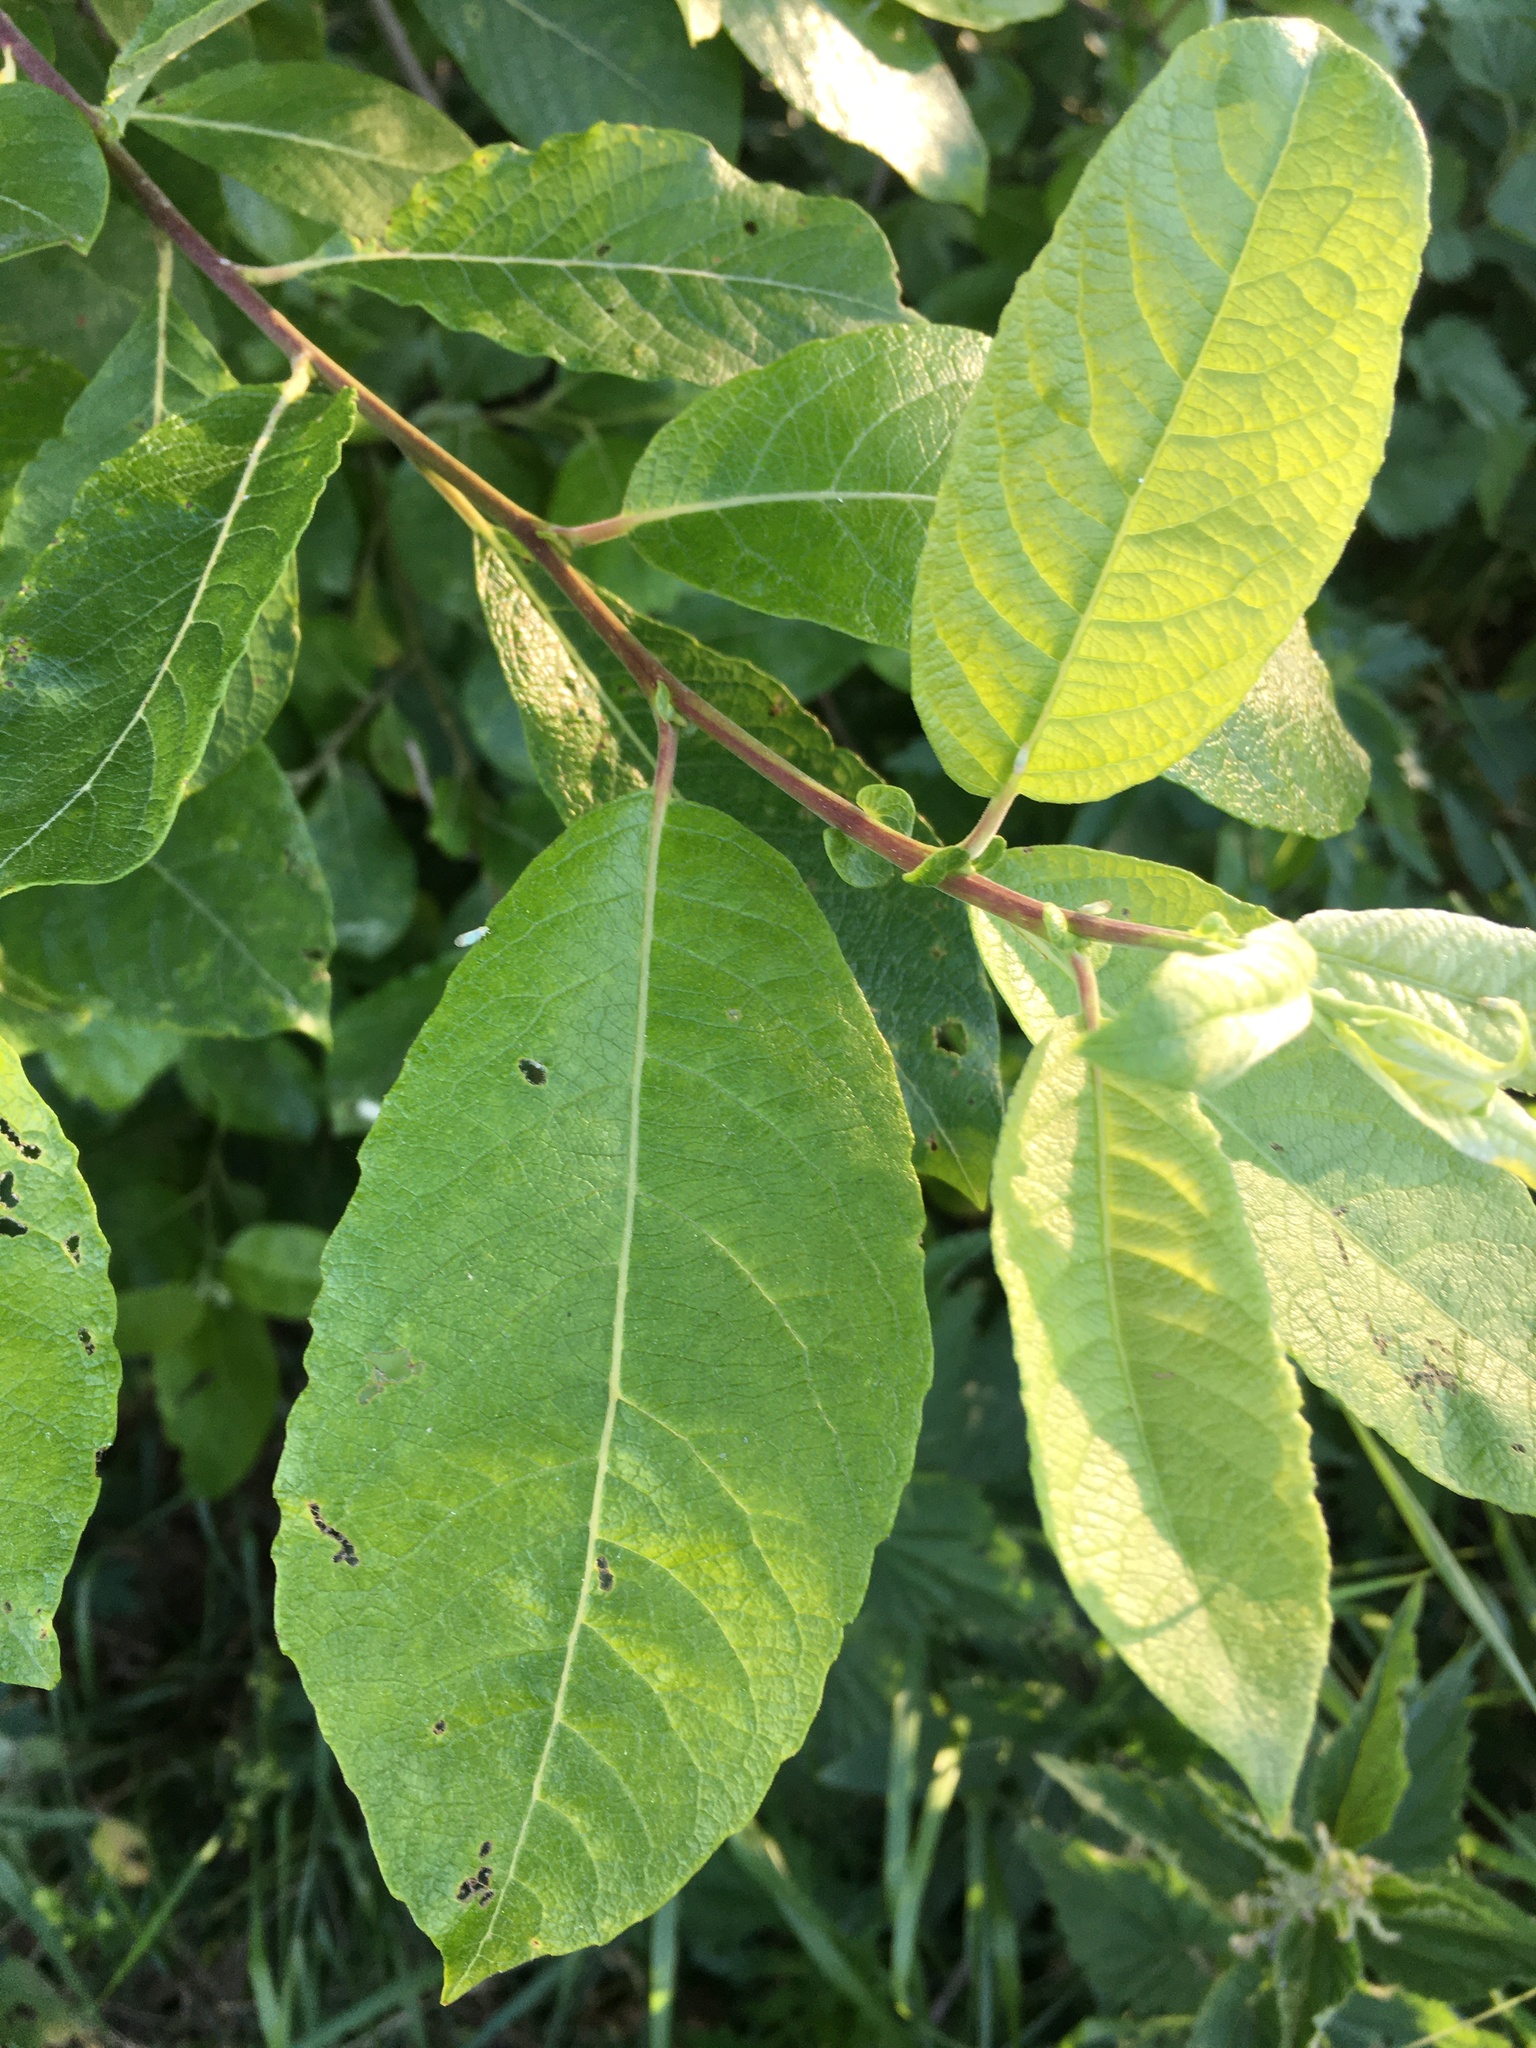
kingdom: Plantae
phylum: Tracheophyta
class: Magnoliopsida
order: Malpighiales
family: Salicaceae
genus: Salix
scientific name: Salix caprea
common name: Goat willow
